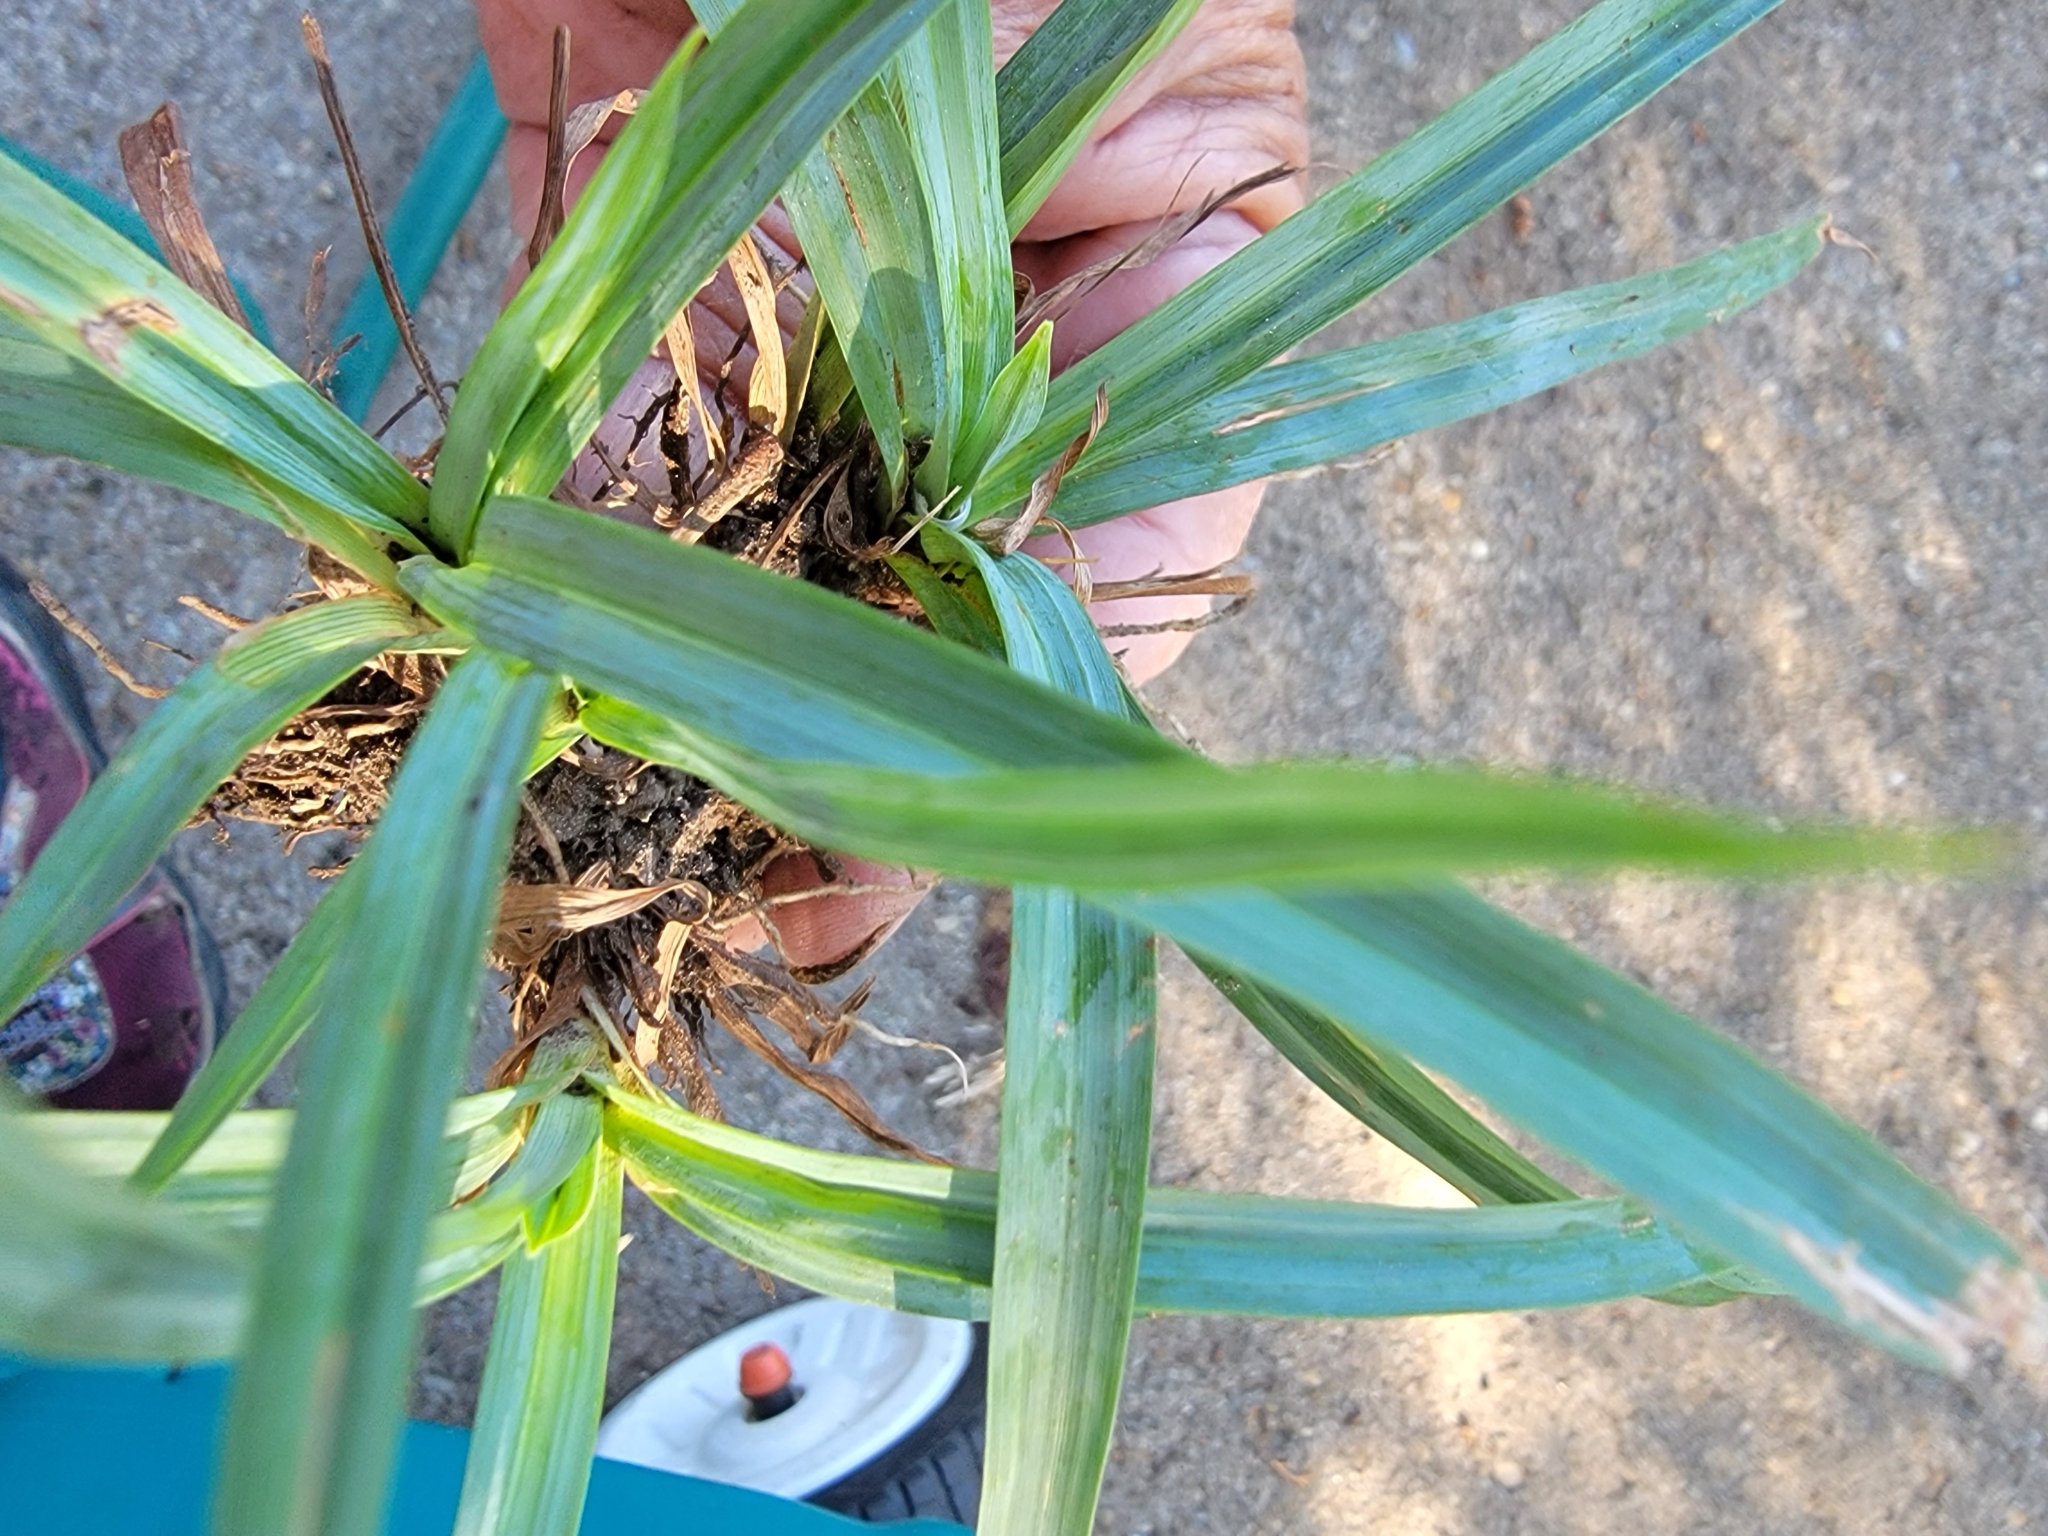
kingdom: Plantae
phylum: Tracheophyta
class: Liliopsida
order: Poales
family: Cyperaceae
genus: Carex
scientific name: Carex glaucodea
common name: Blue sedge
